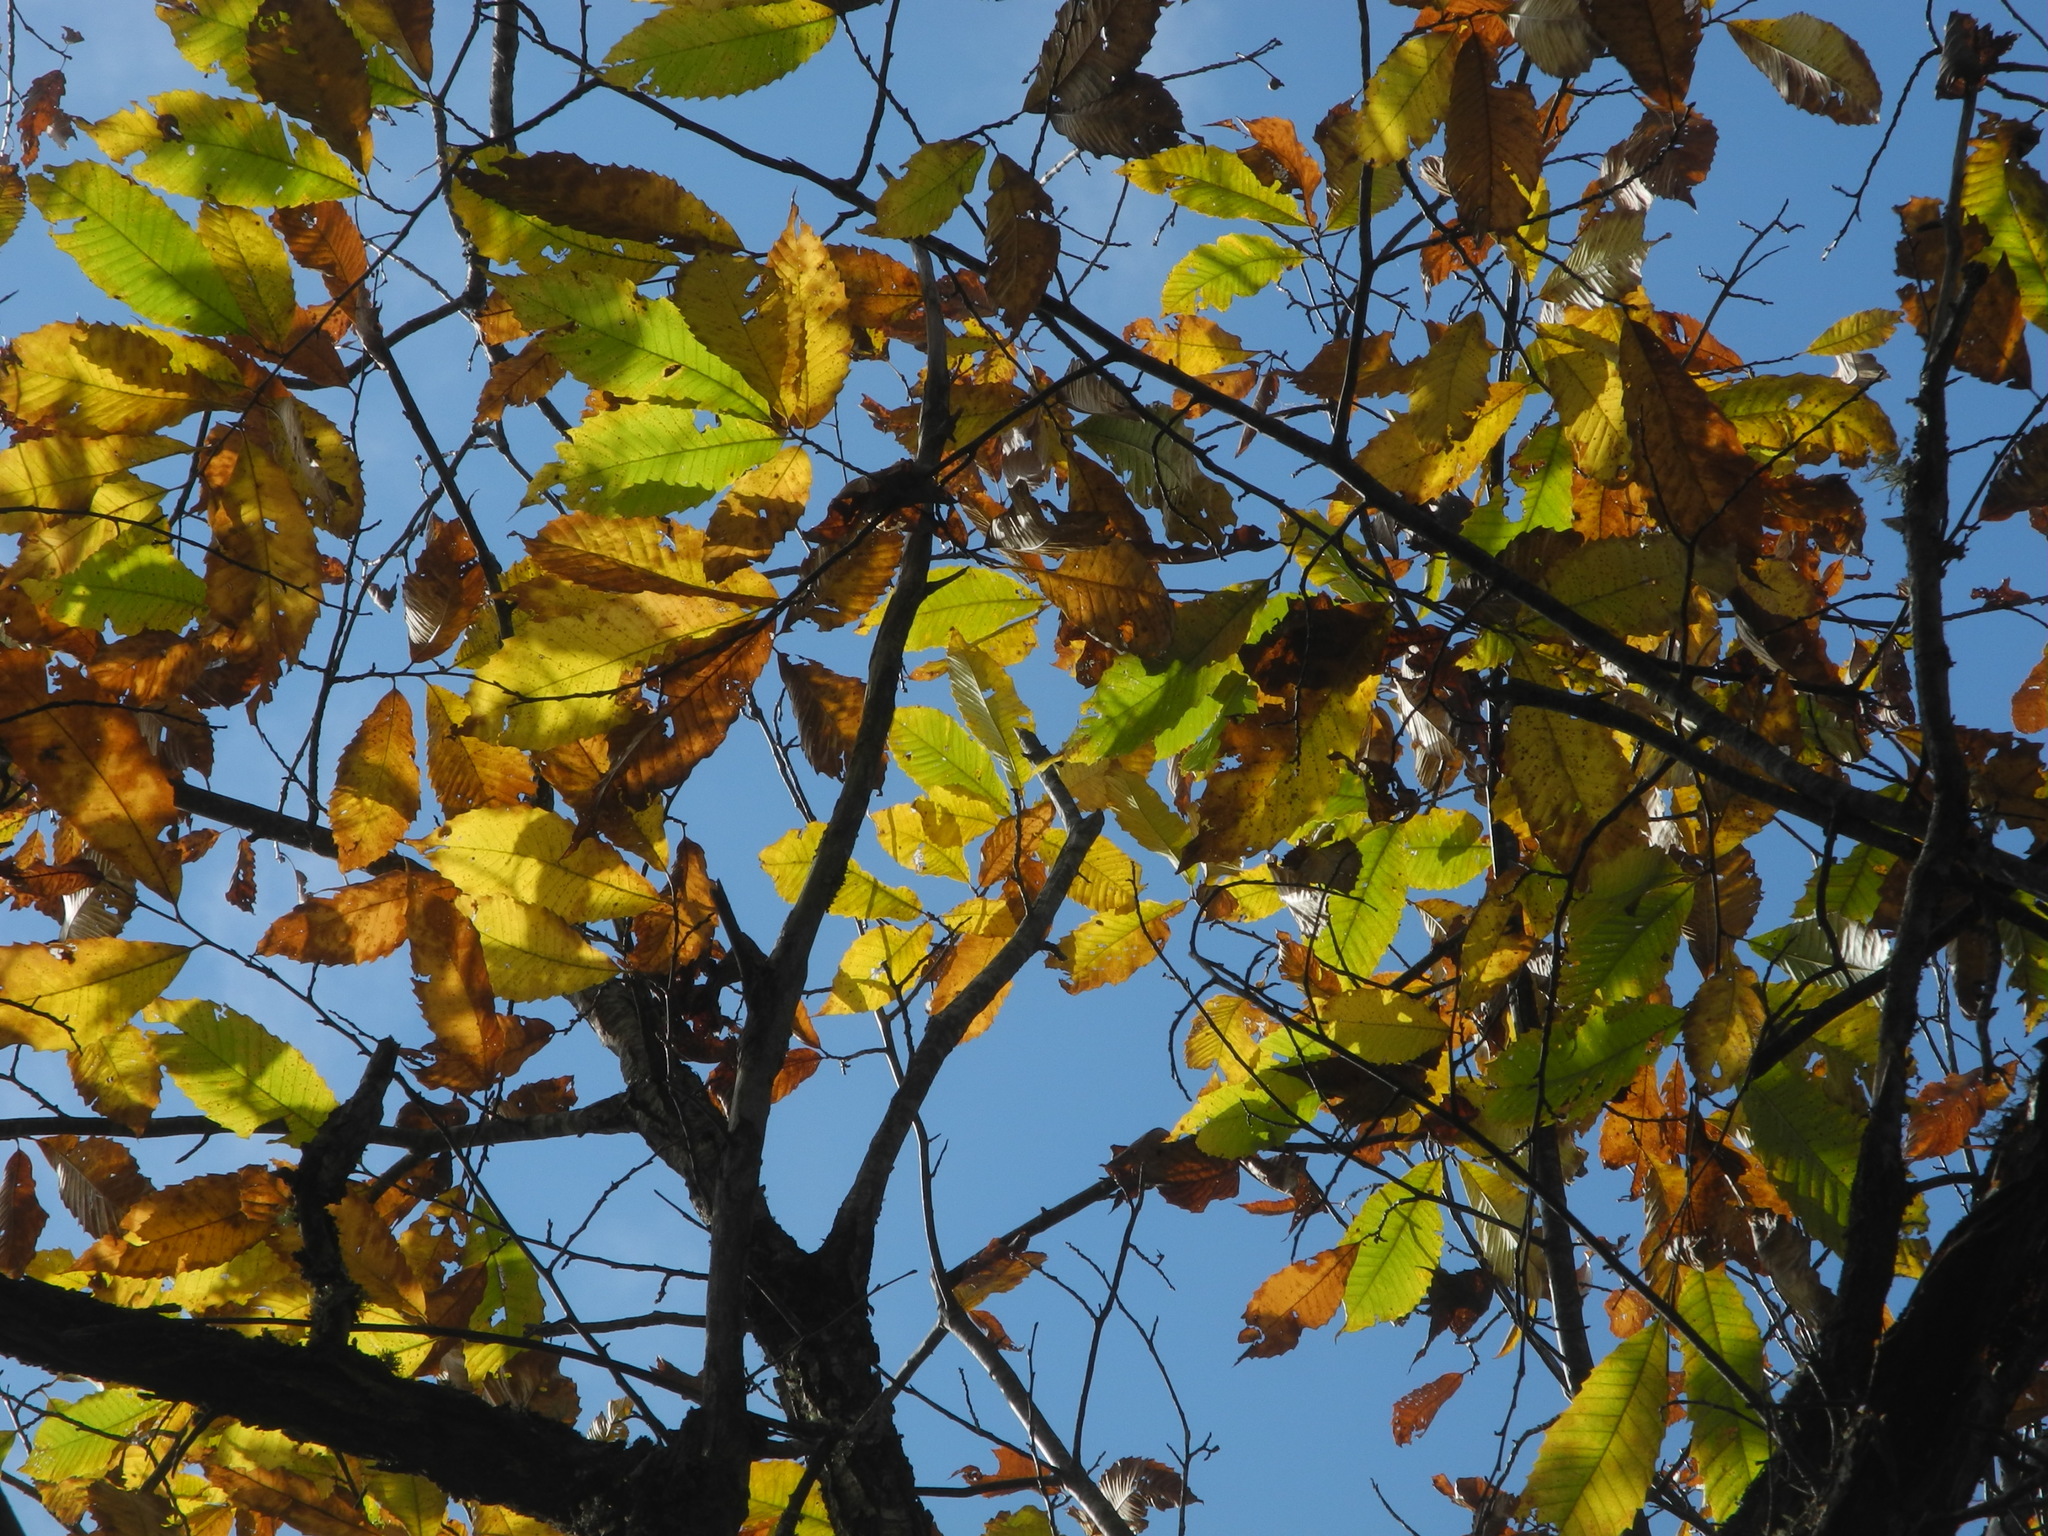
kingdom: Plantae
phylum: Tracheophyta
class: Magnoliopsida
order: Fagales
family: Fagaceae
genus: Castanea
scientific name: Castanea dentata
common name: American chestnut
